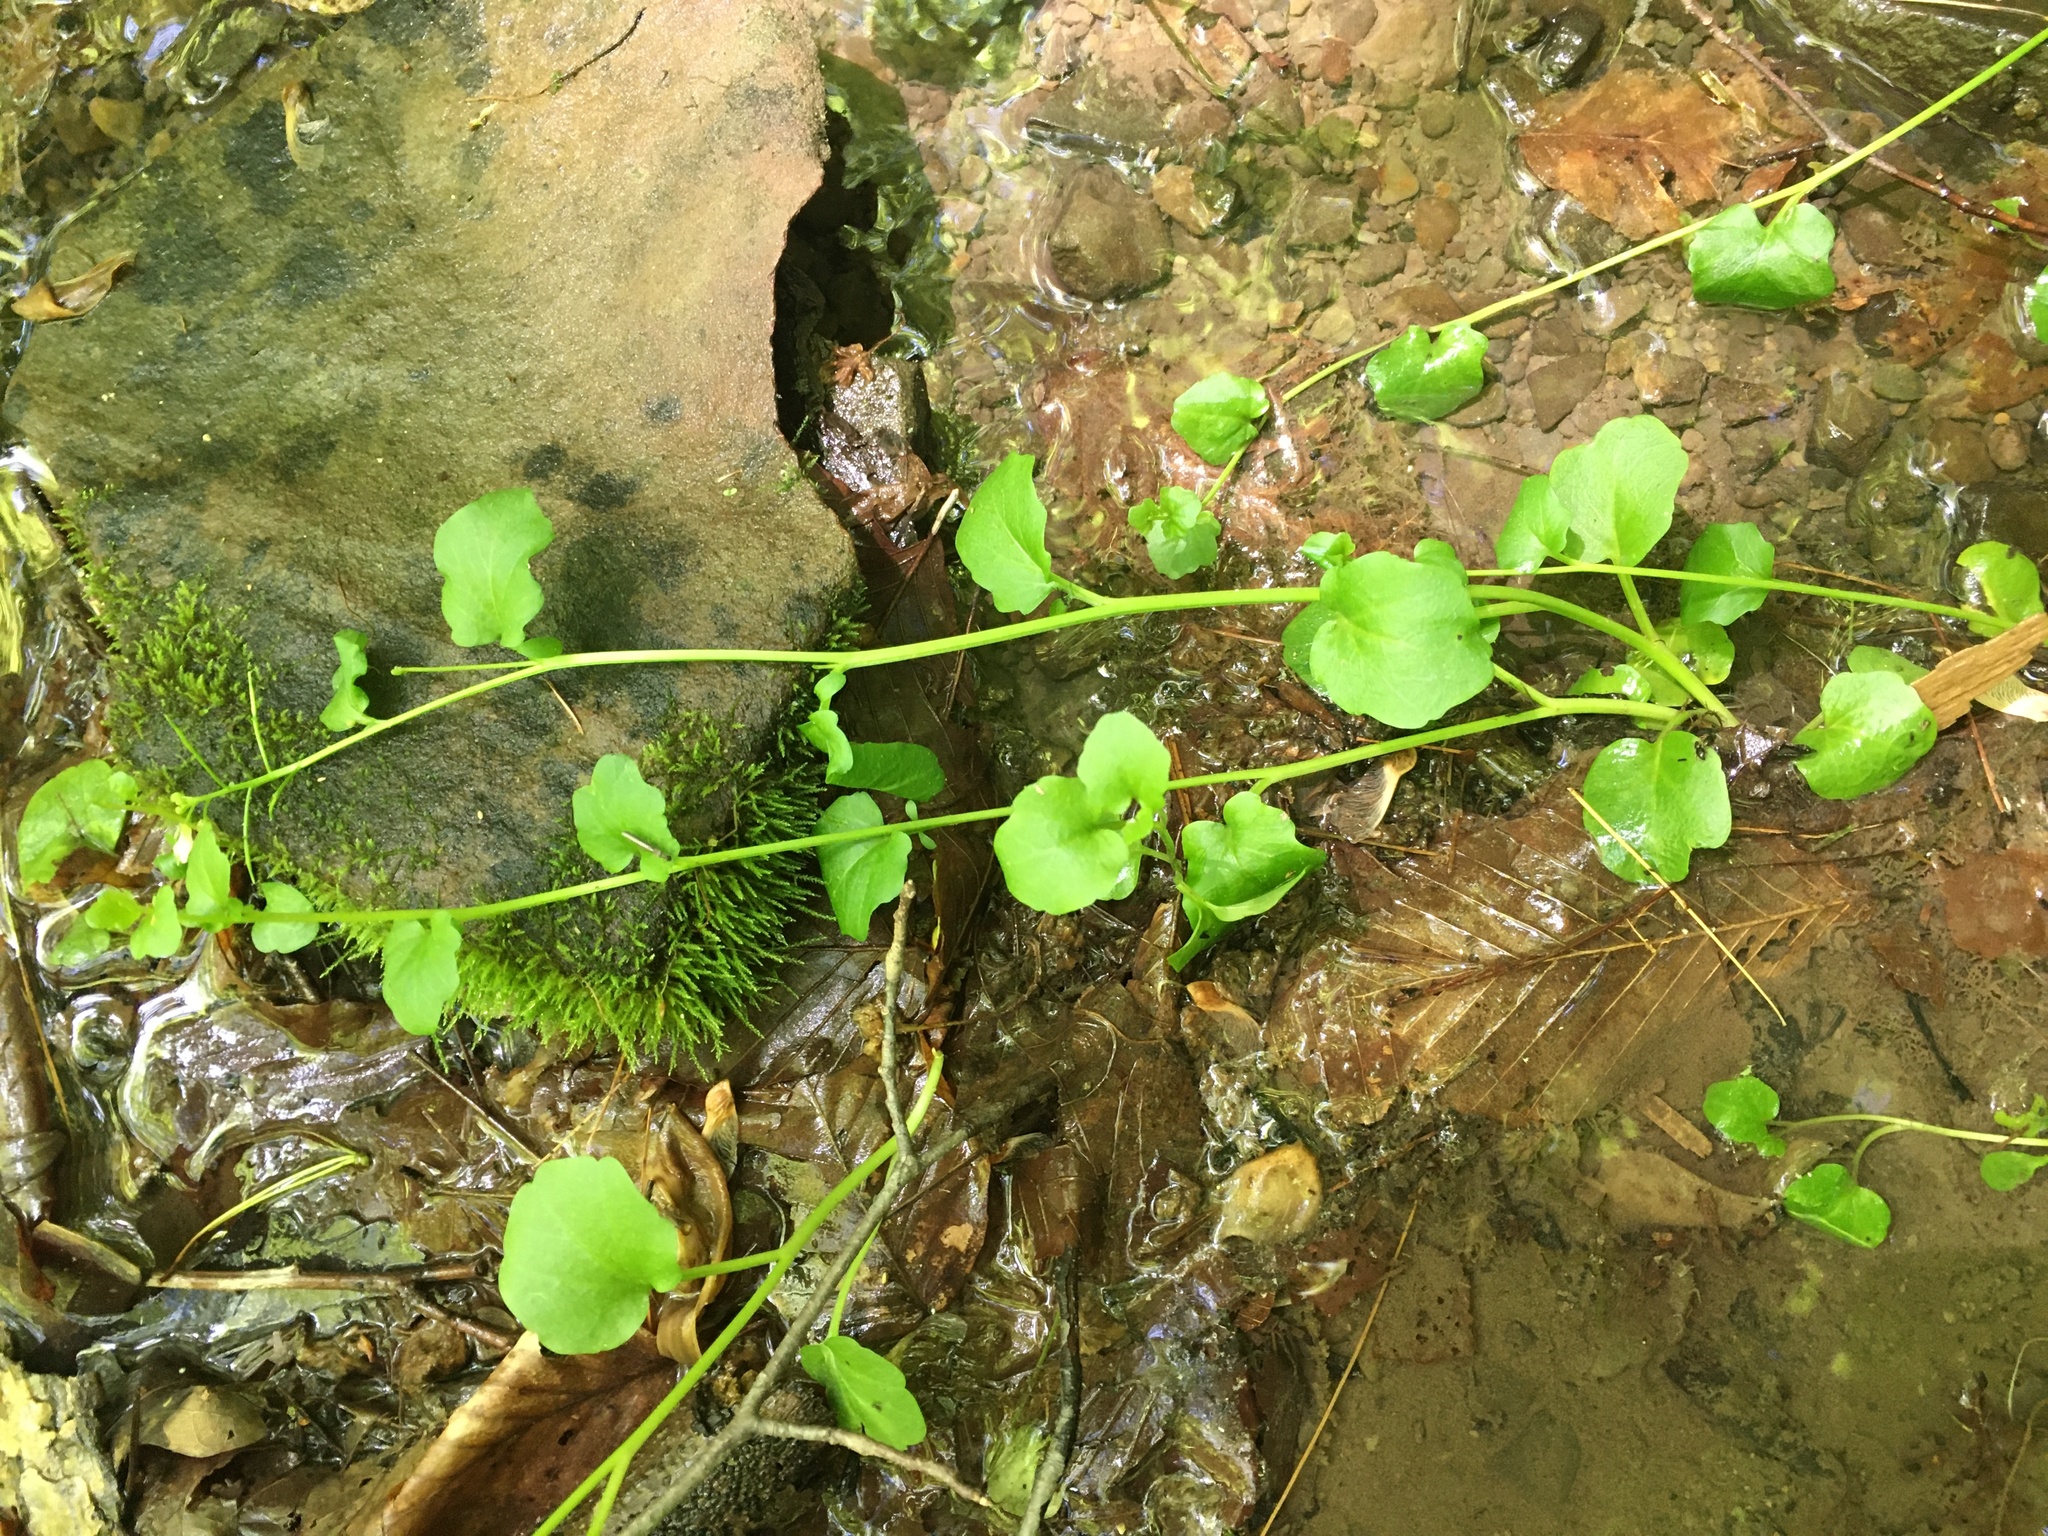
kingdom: Plantae
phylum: Tracheophyta
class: Magnoliopsida
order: Brassicales
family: Brassicaceae
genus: Cardamine
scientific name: Cardamine bulbosa
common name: Spring cress
